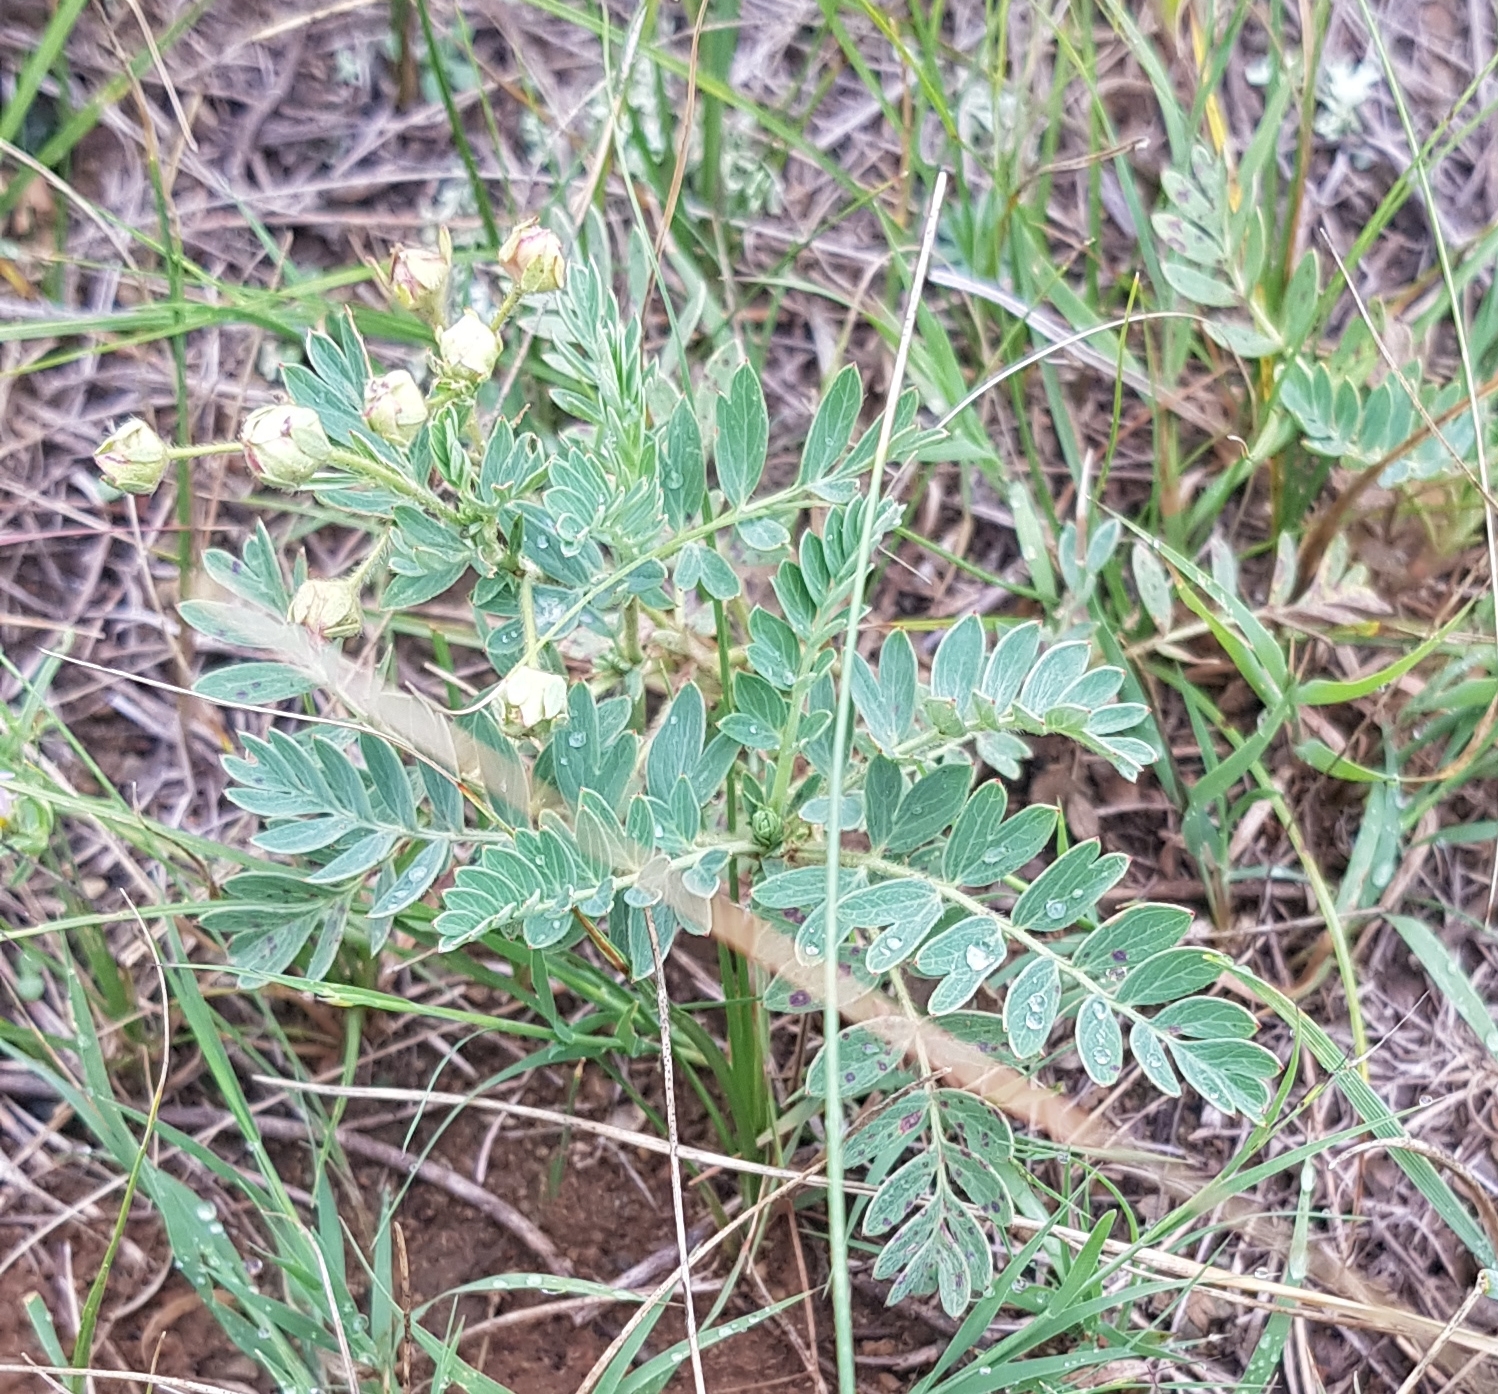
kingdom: Plantae
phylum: Tracheophyta
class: Magnoliopsida
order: Rosales
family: Rosaceae
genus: Sibbaldianthe
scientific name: Sibbaldianthe bifurca
